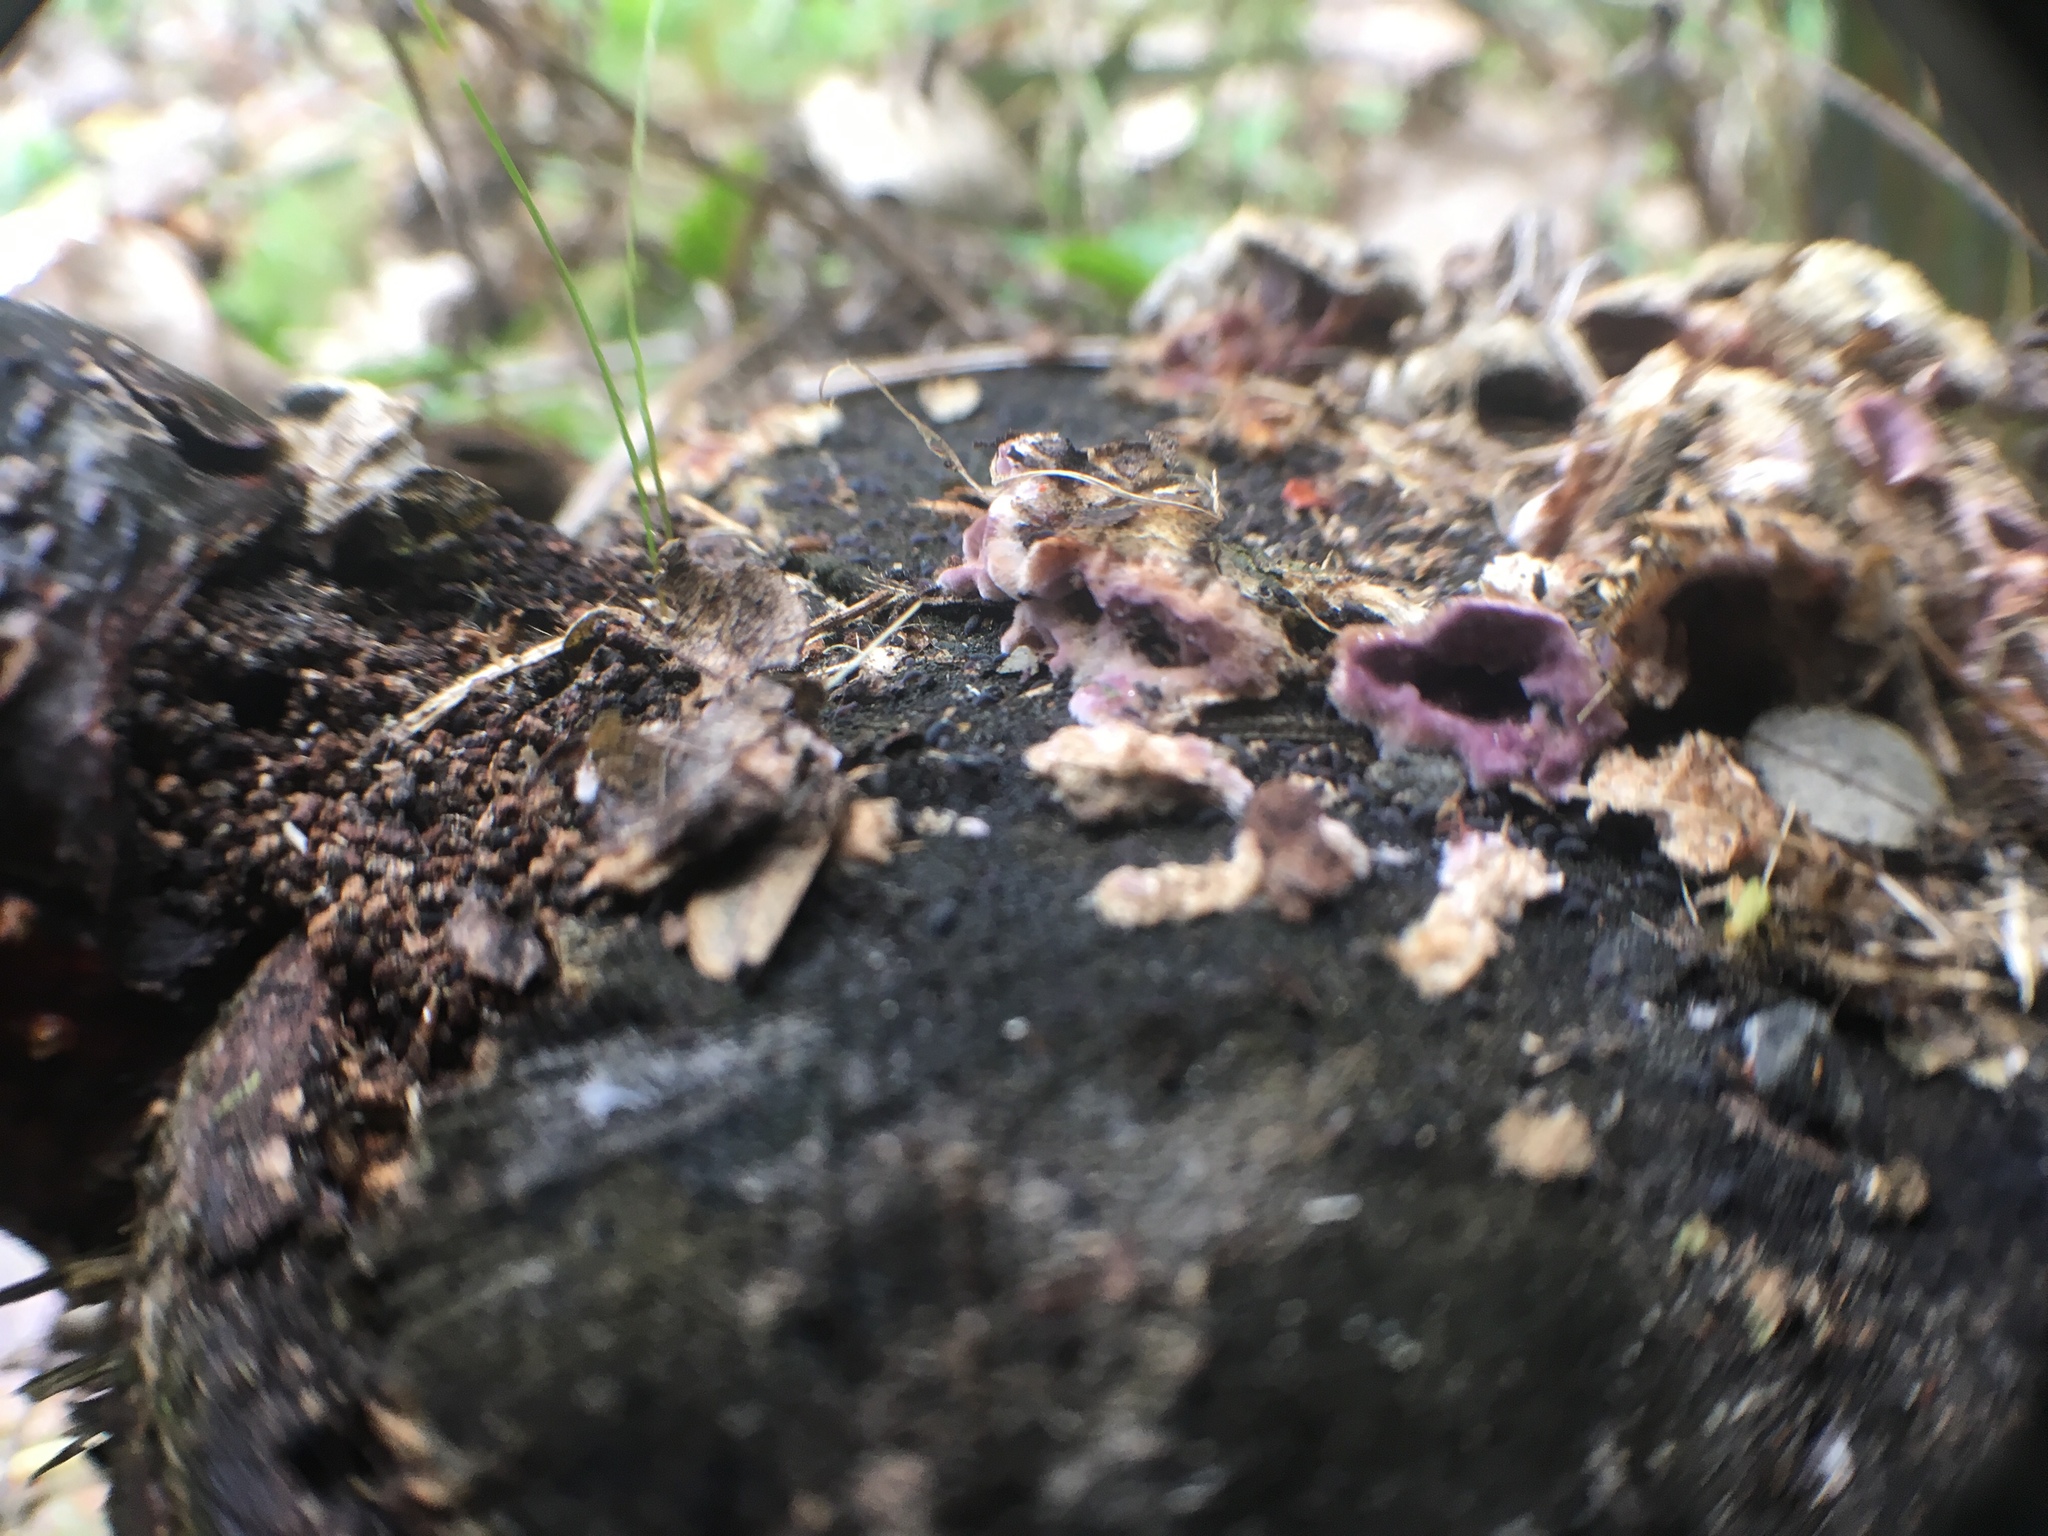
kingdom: Fungi
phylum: Basidiomycota
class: Agaricomycetes
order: Agaricales
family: Cyphellaceae
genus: Chondrostereum
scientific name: Chondrostereum purpureum
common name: Silver leaf disease
